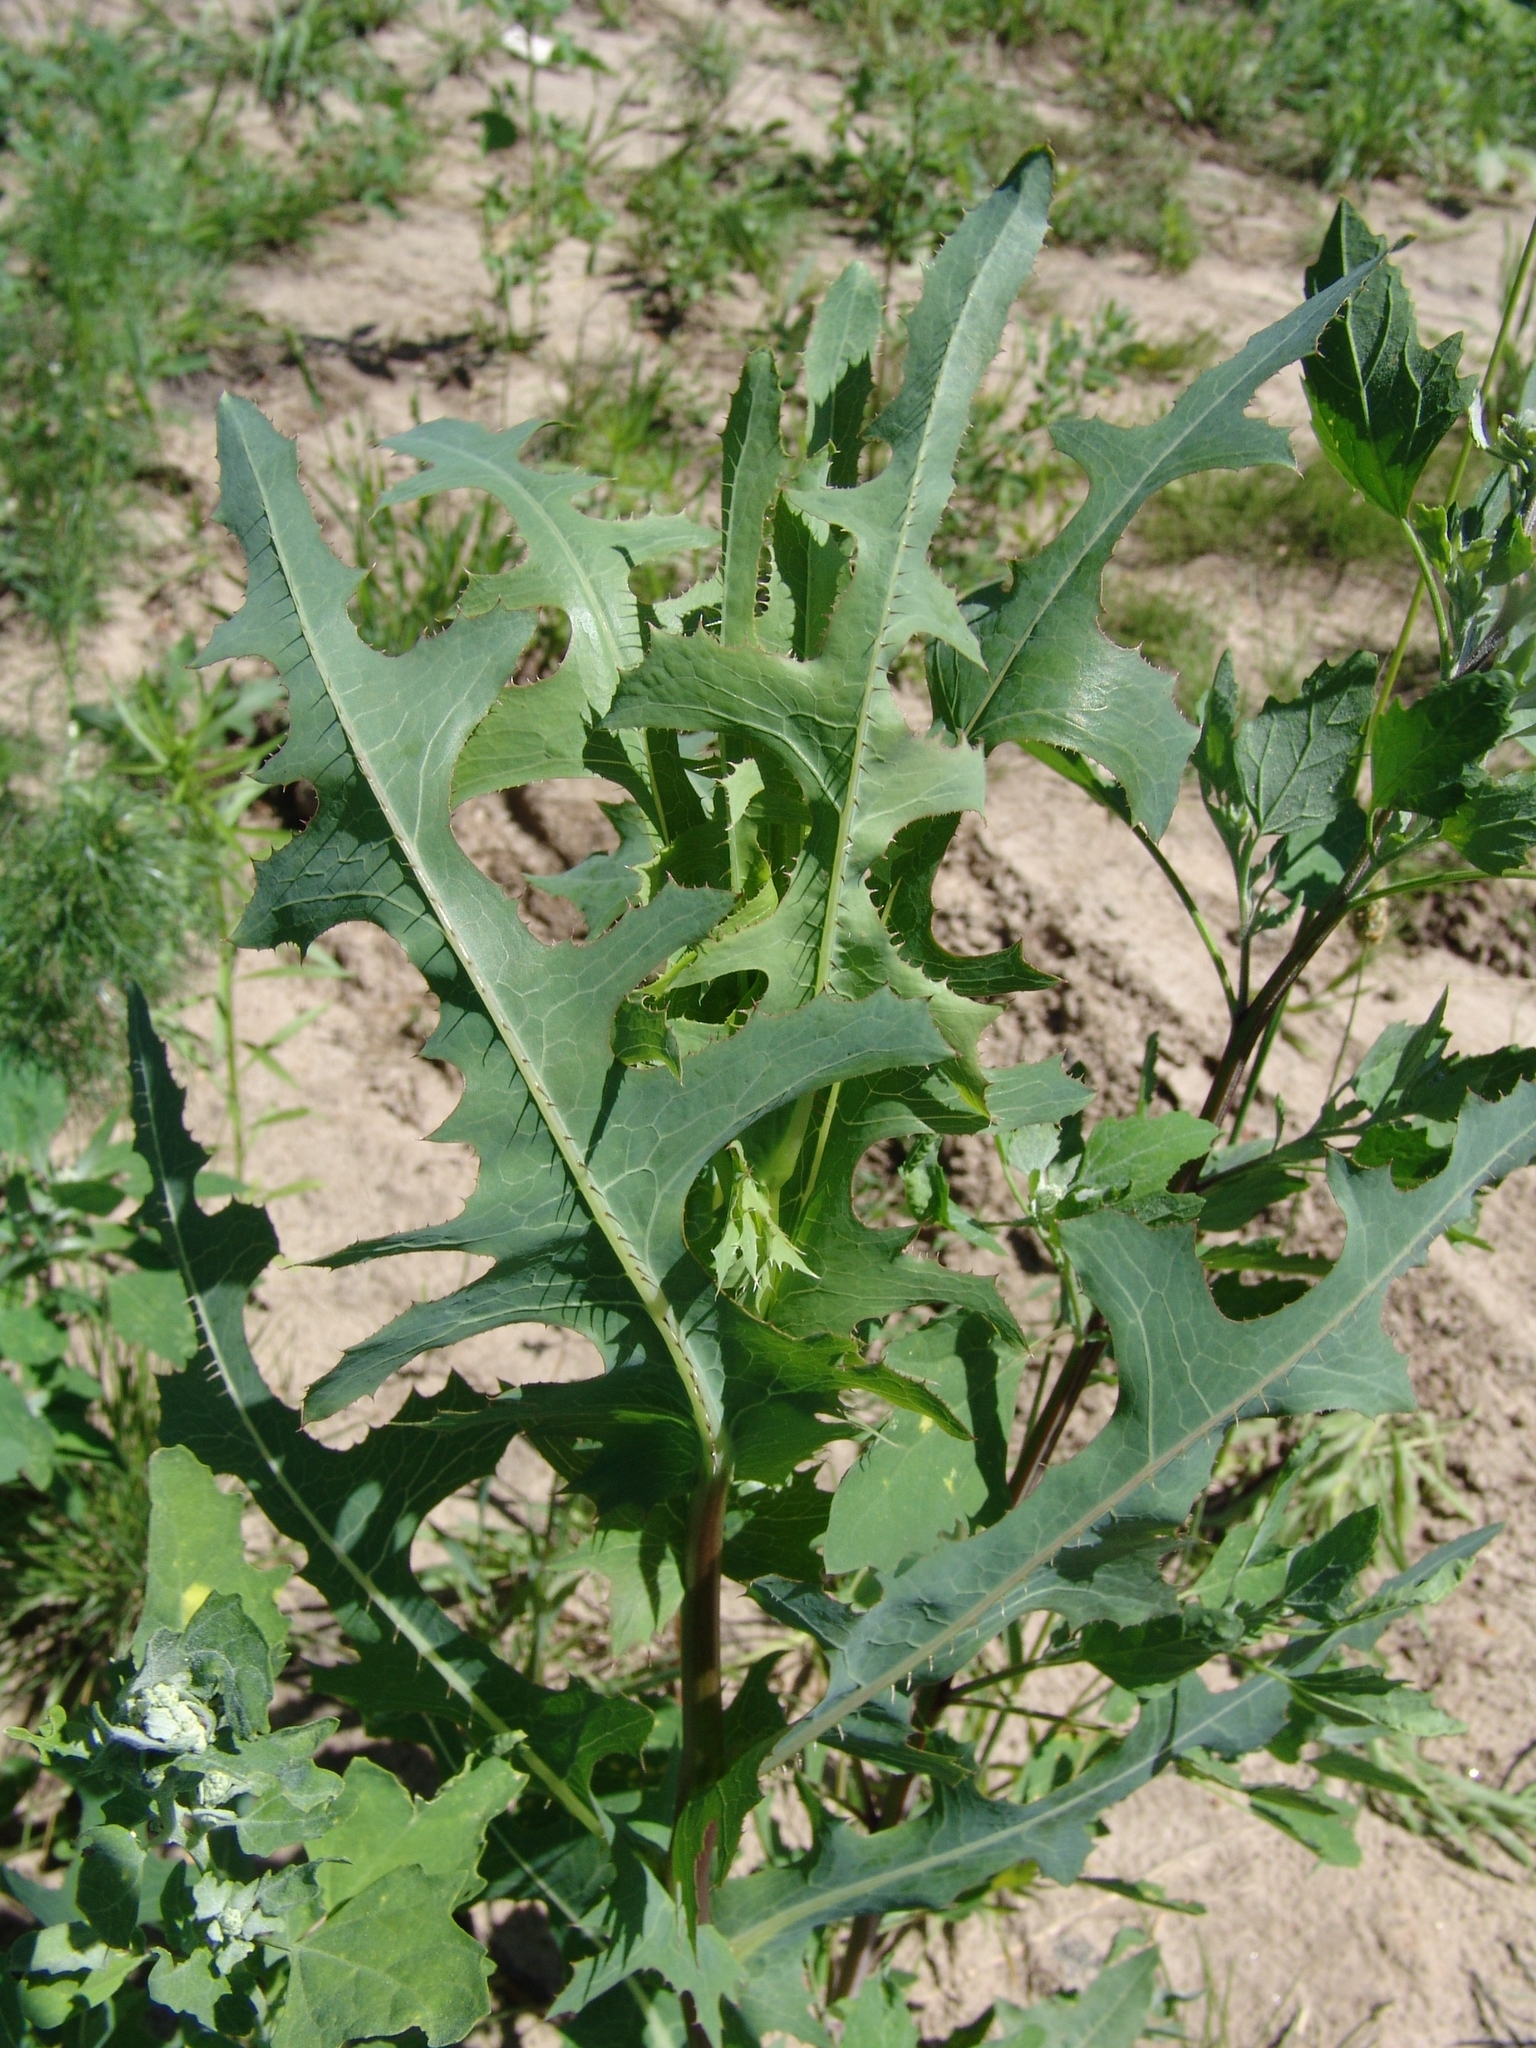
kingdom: Plantae
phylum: Tracheophyta
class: Magnoliopsida
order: Asterales
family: Asteraceae
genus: Lactuca
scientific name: Lactuca serriola
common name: Prickly lettuce
